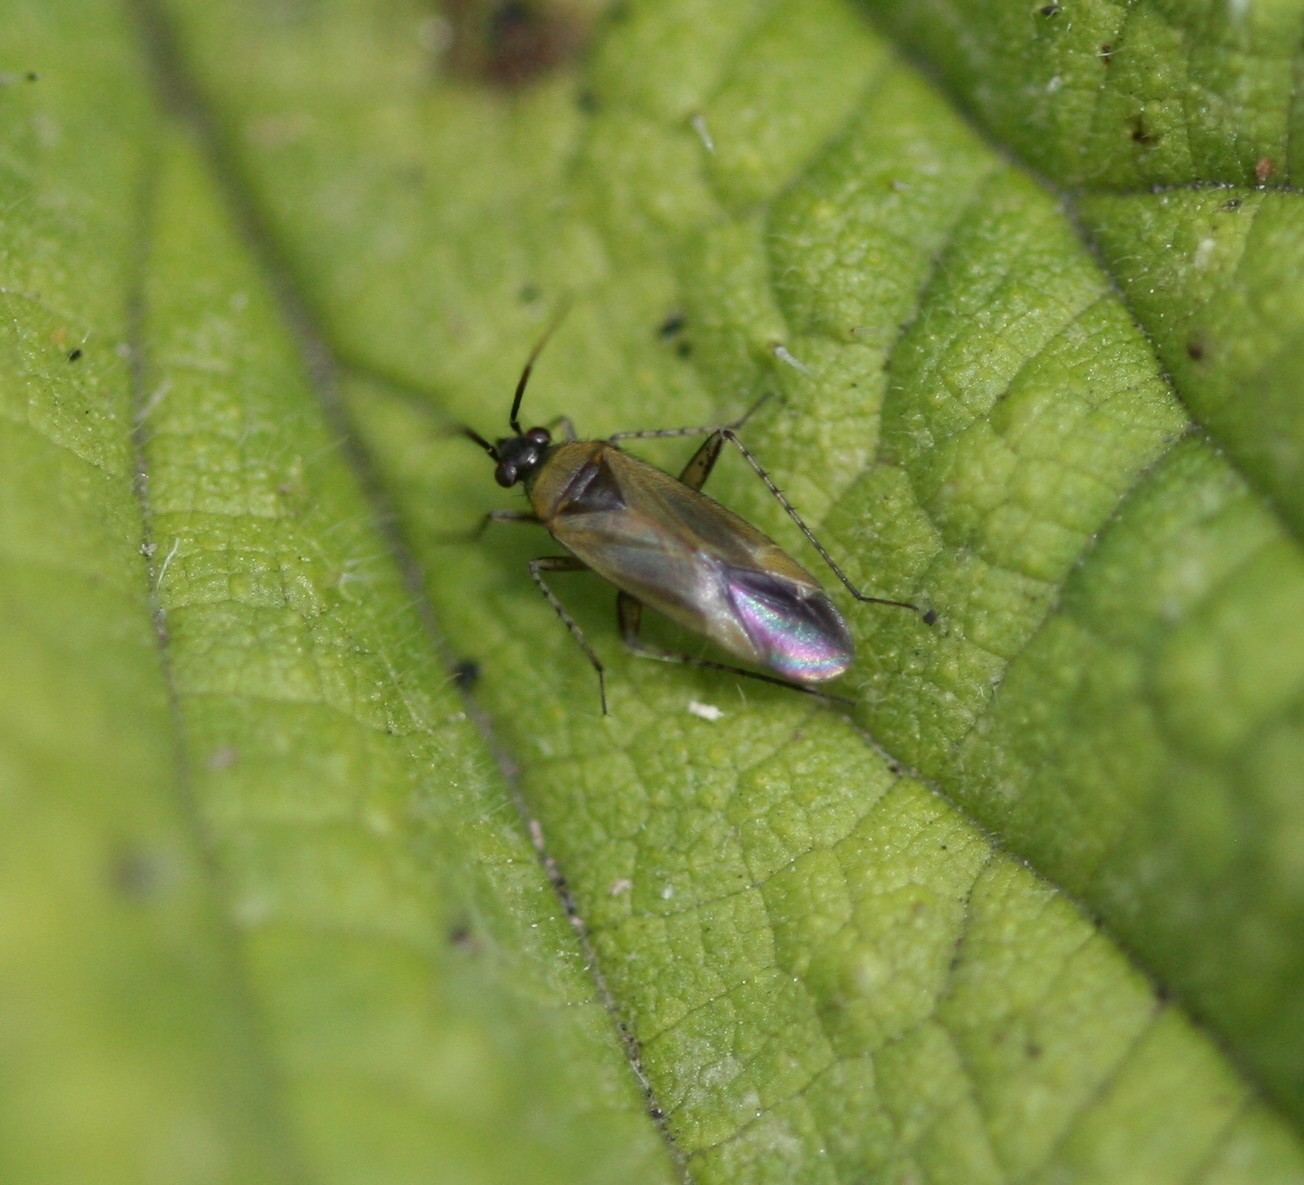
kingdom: Animalia
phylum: Arthropoda
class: Insecta
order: Hemiptera
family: Miridae
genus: Plagiognathus
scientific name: Plagiognathus arbustorum
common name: Plant bug
